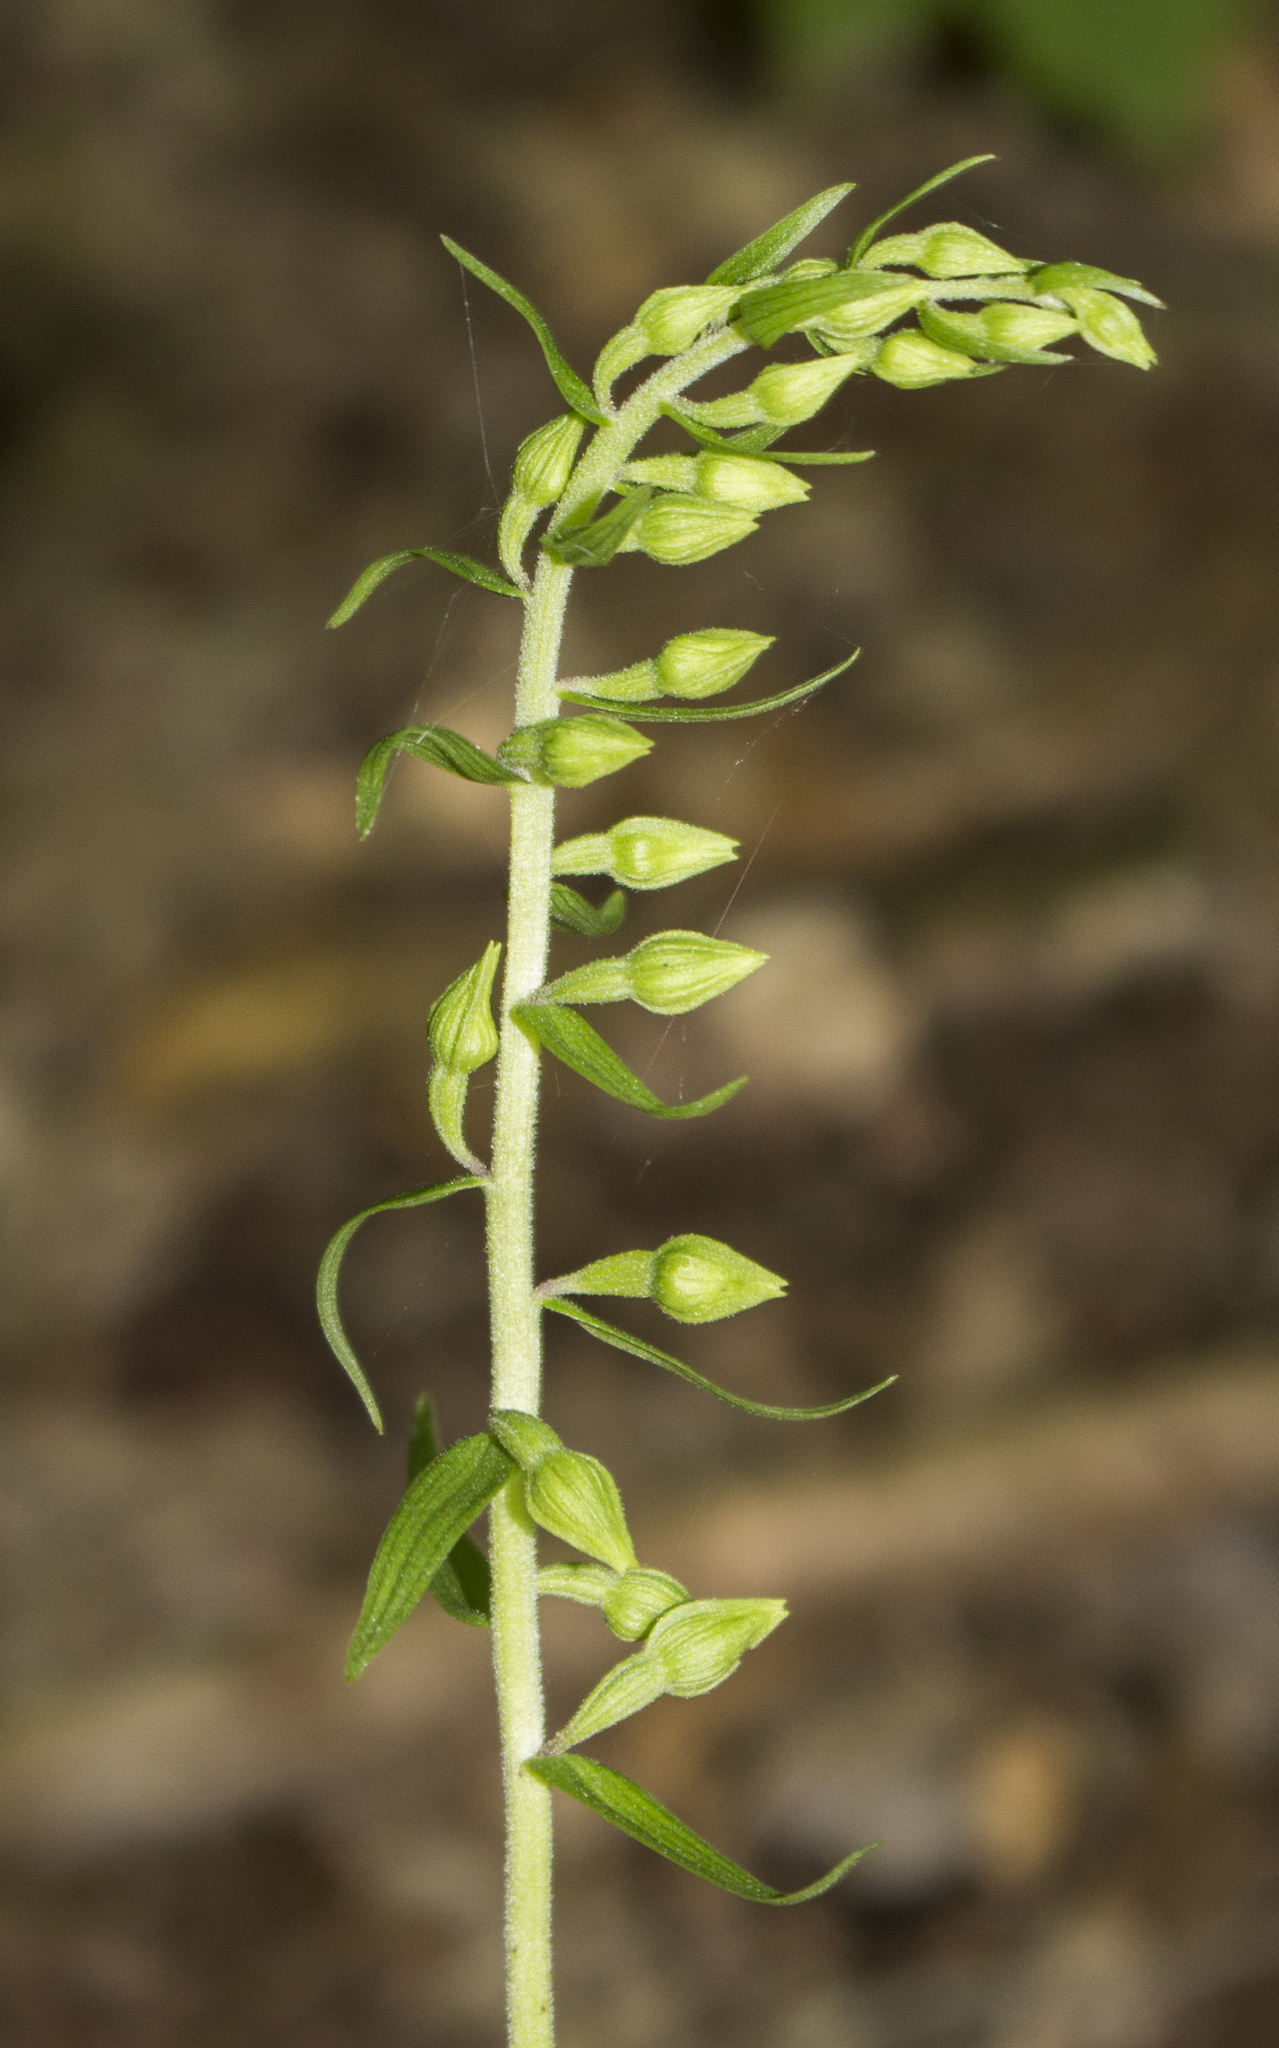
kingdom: Plantae
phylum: Tracheophyta
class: Liliopsida
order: Asparagales
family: Orchidaceae
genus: Epipactis
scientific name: Epipactis helleborine
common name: Broad-leaved helleborine
